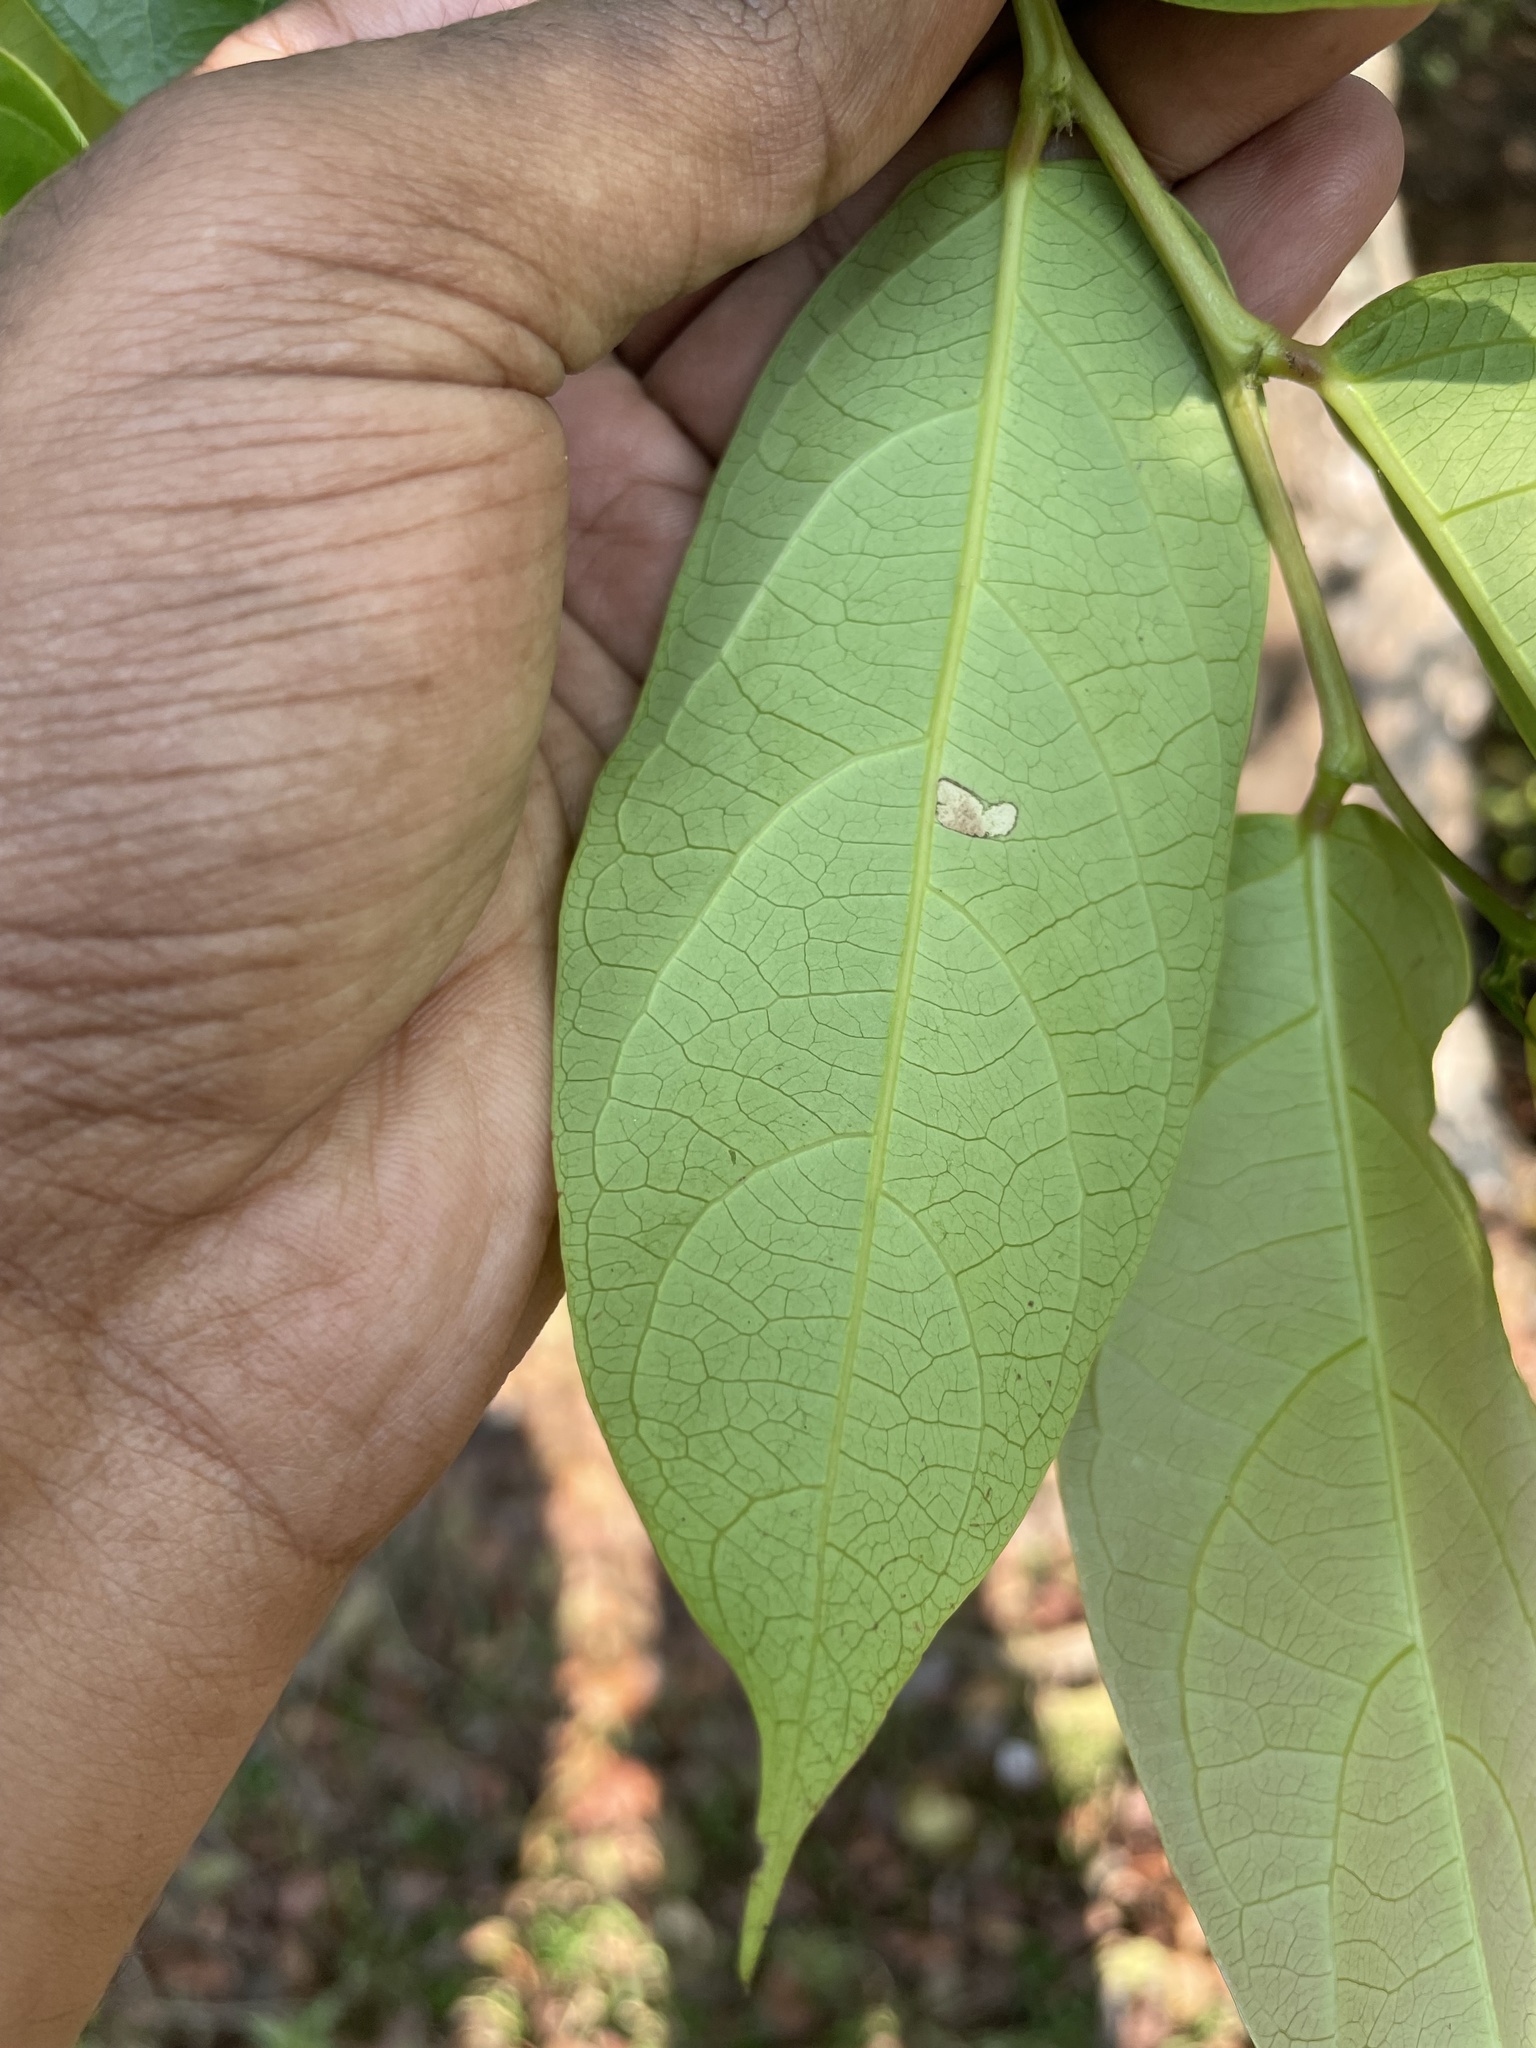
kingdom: Plantae
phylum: Tracheophyta
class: Magnoliopsida
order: Malpighiales
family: Phyllanthaceae
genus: Glochidion
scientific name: Glochidion ellipticum
